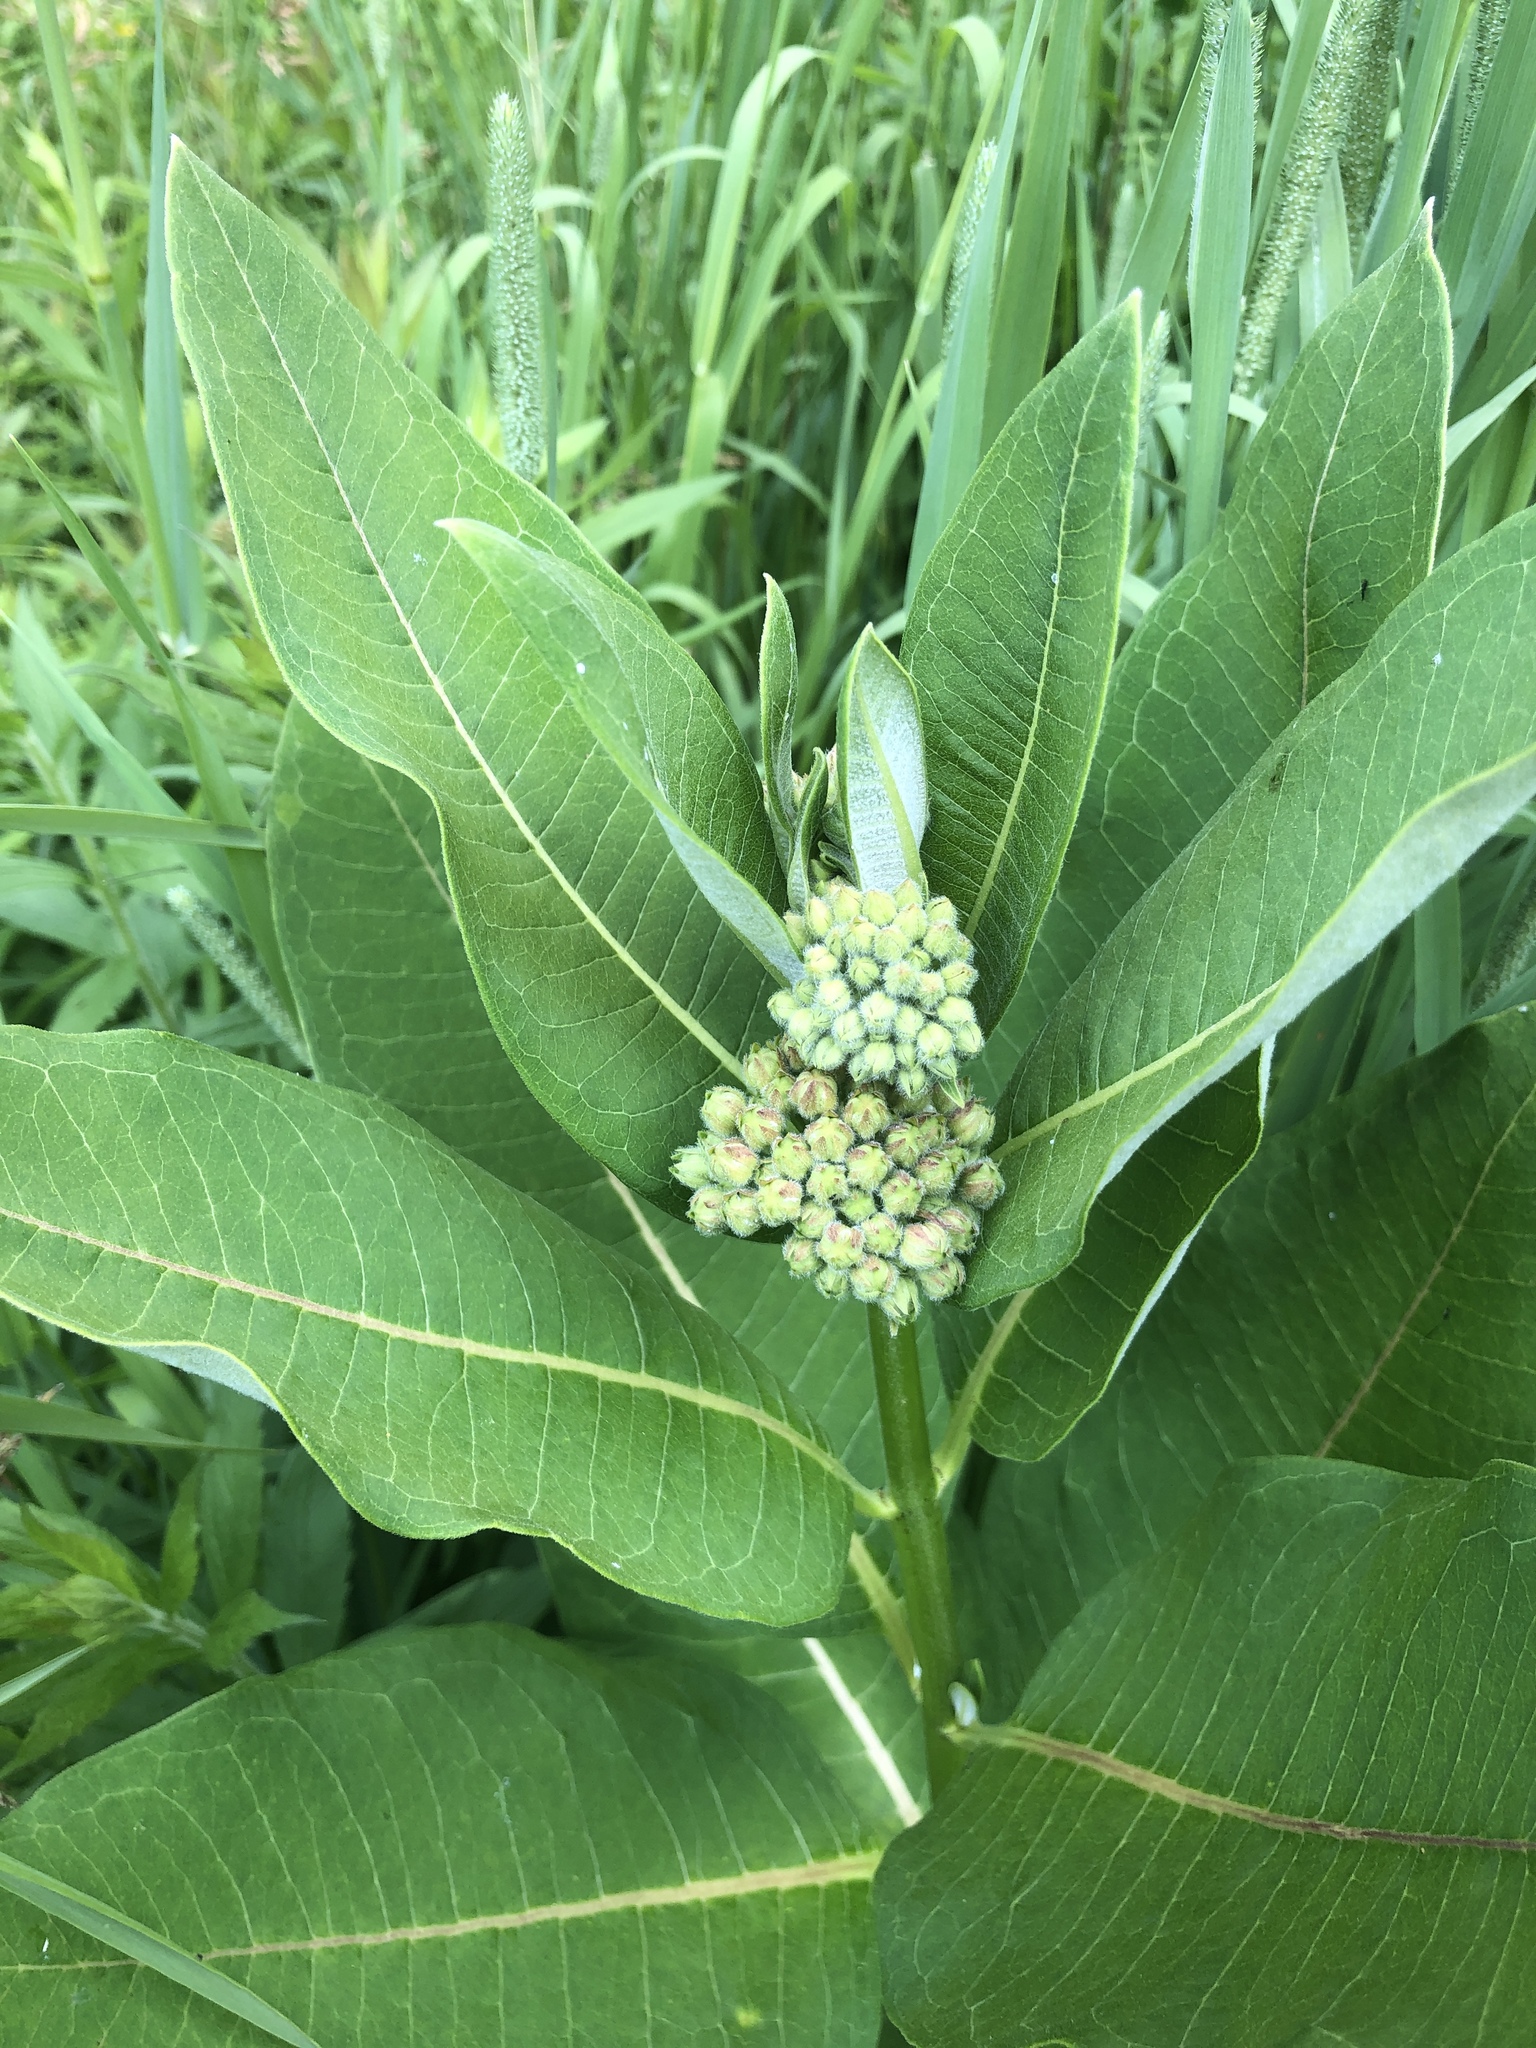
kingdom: Plantae
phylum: Tracheophyta
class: Magnoliopsida
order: Gentianales
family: Apocynaceae
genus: Asclepias
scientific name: Asclepias syriaca
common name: Common milkweed
